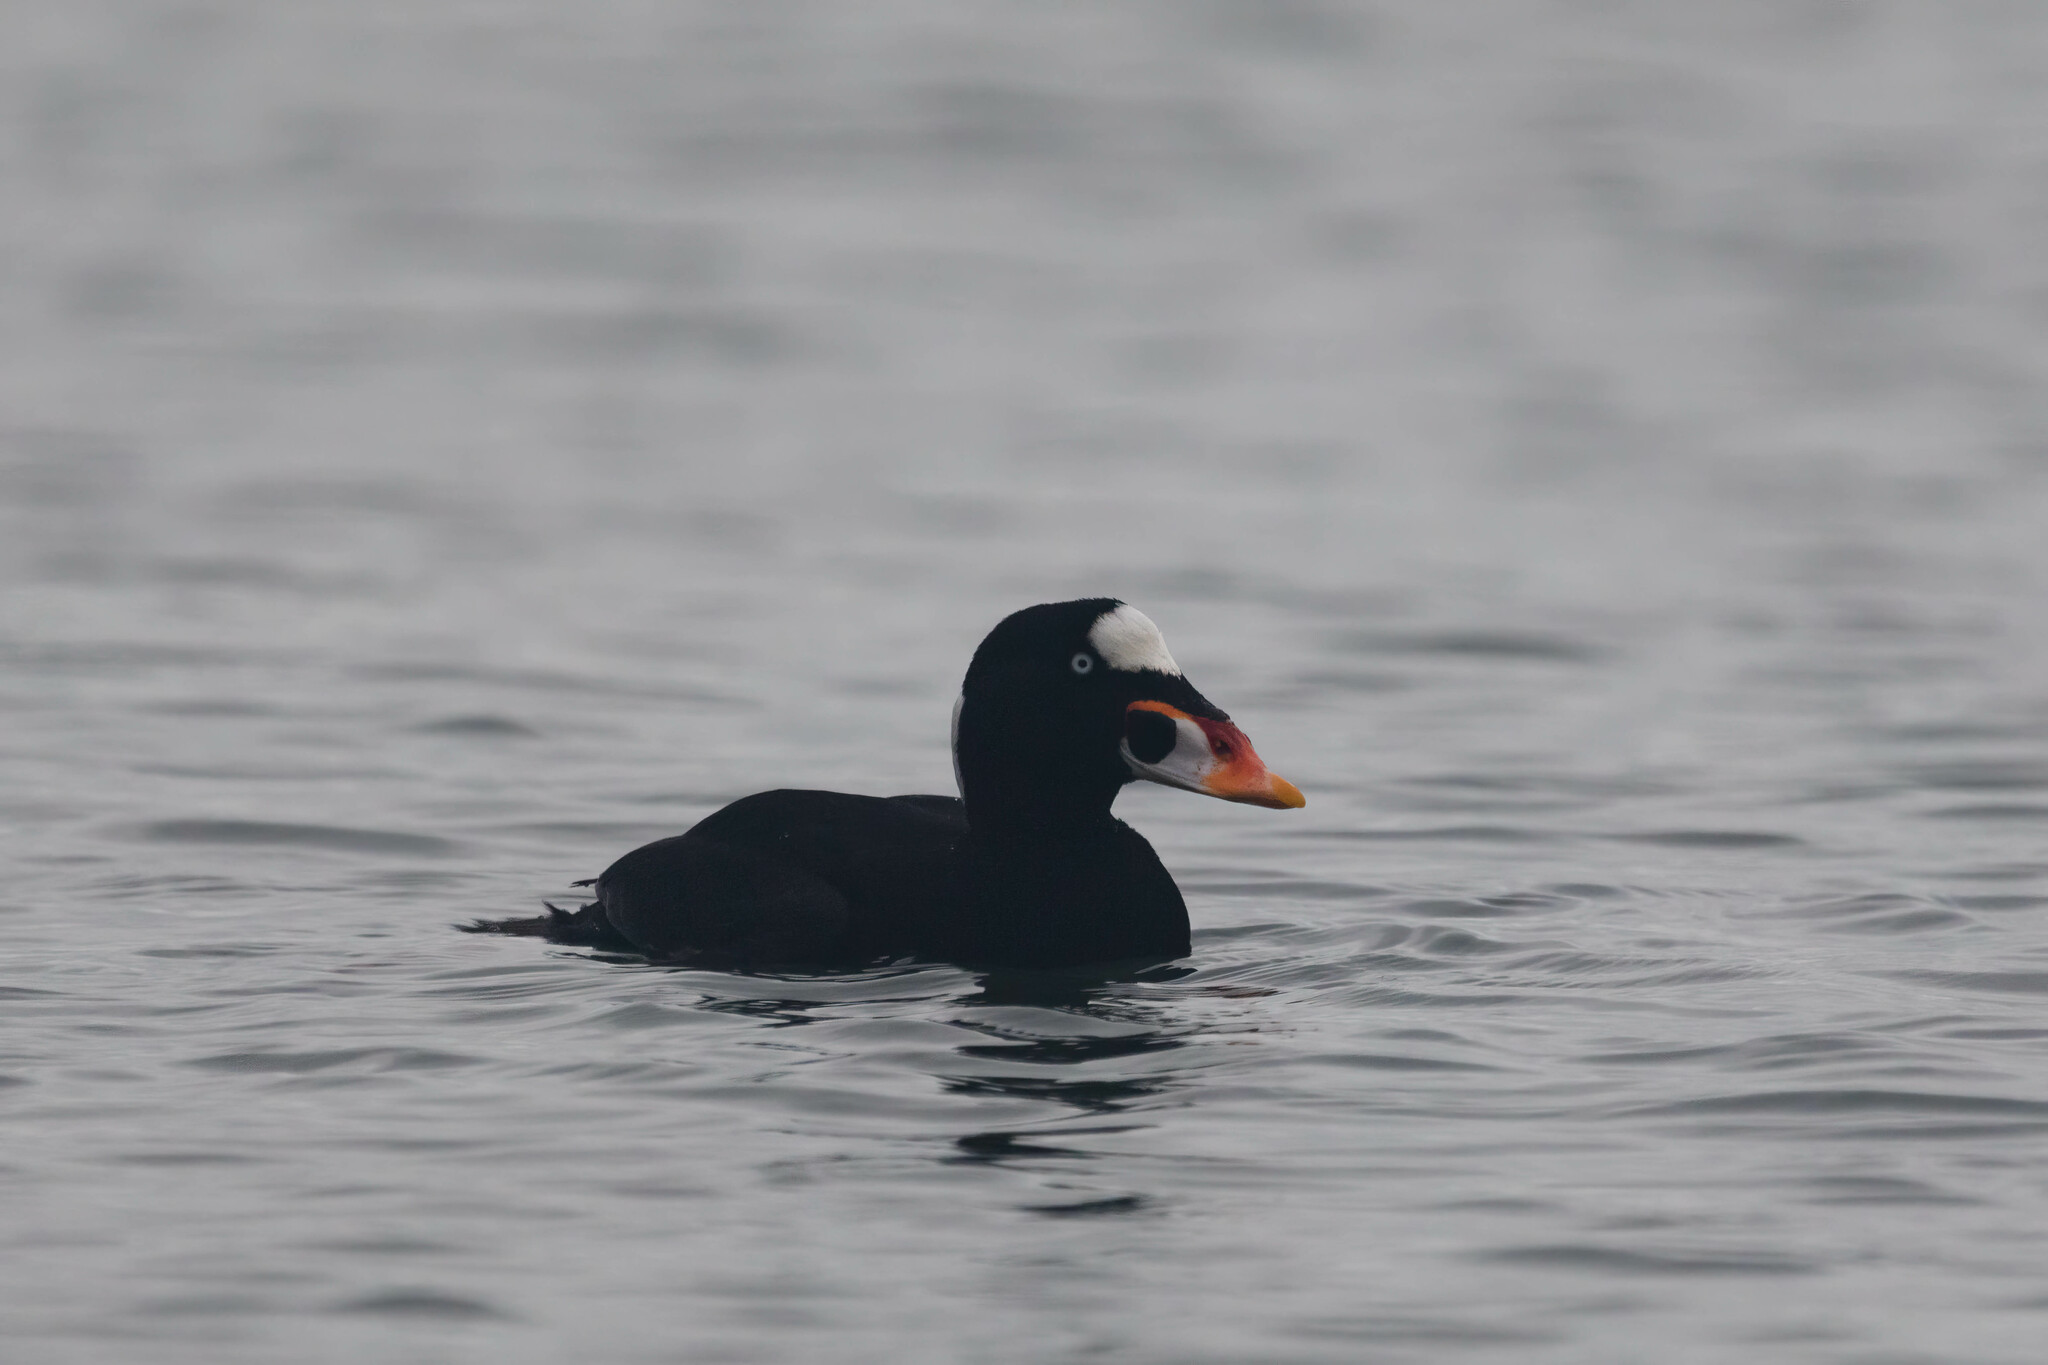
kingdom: Animalia
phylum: Chordata
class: Aves
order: Anseriformes
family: Anatidae
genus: Melanitta
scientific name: Melanitta perspicillata
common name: Surf scoter
